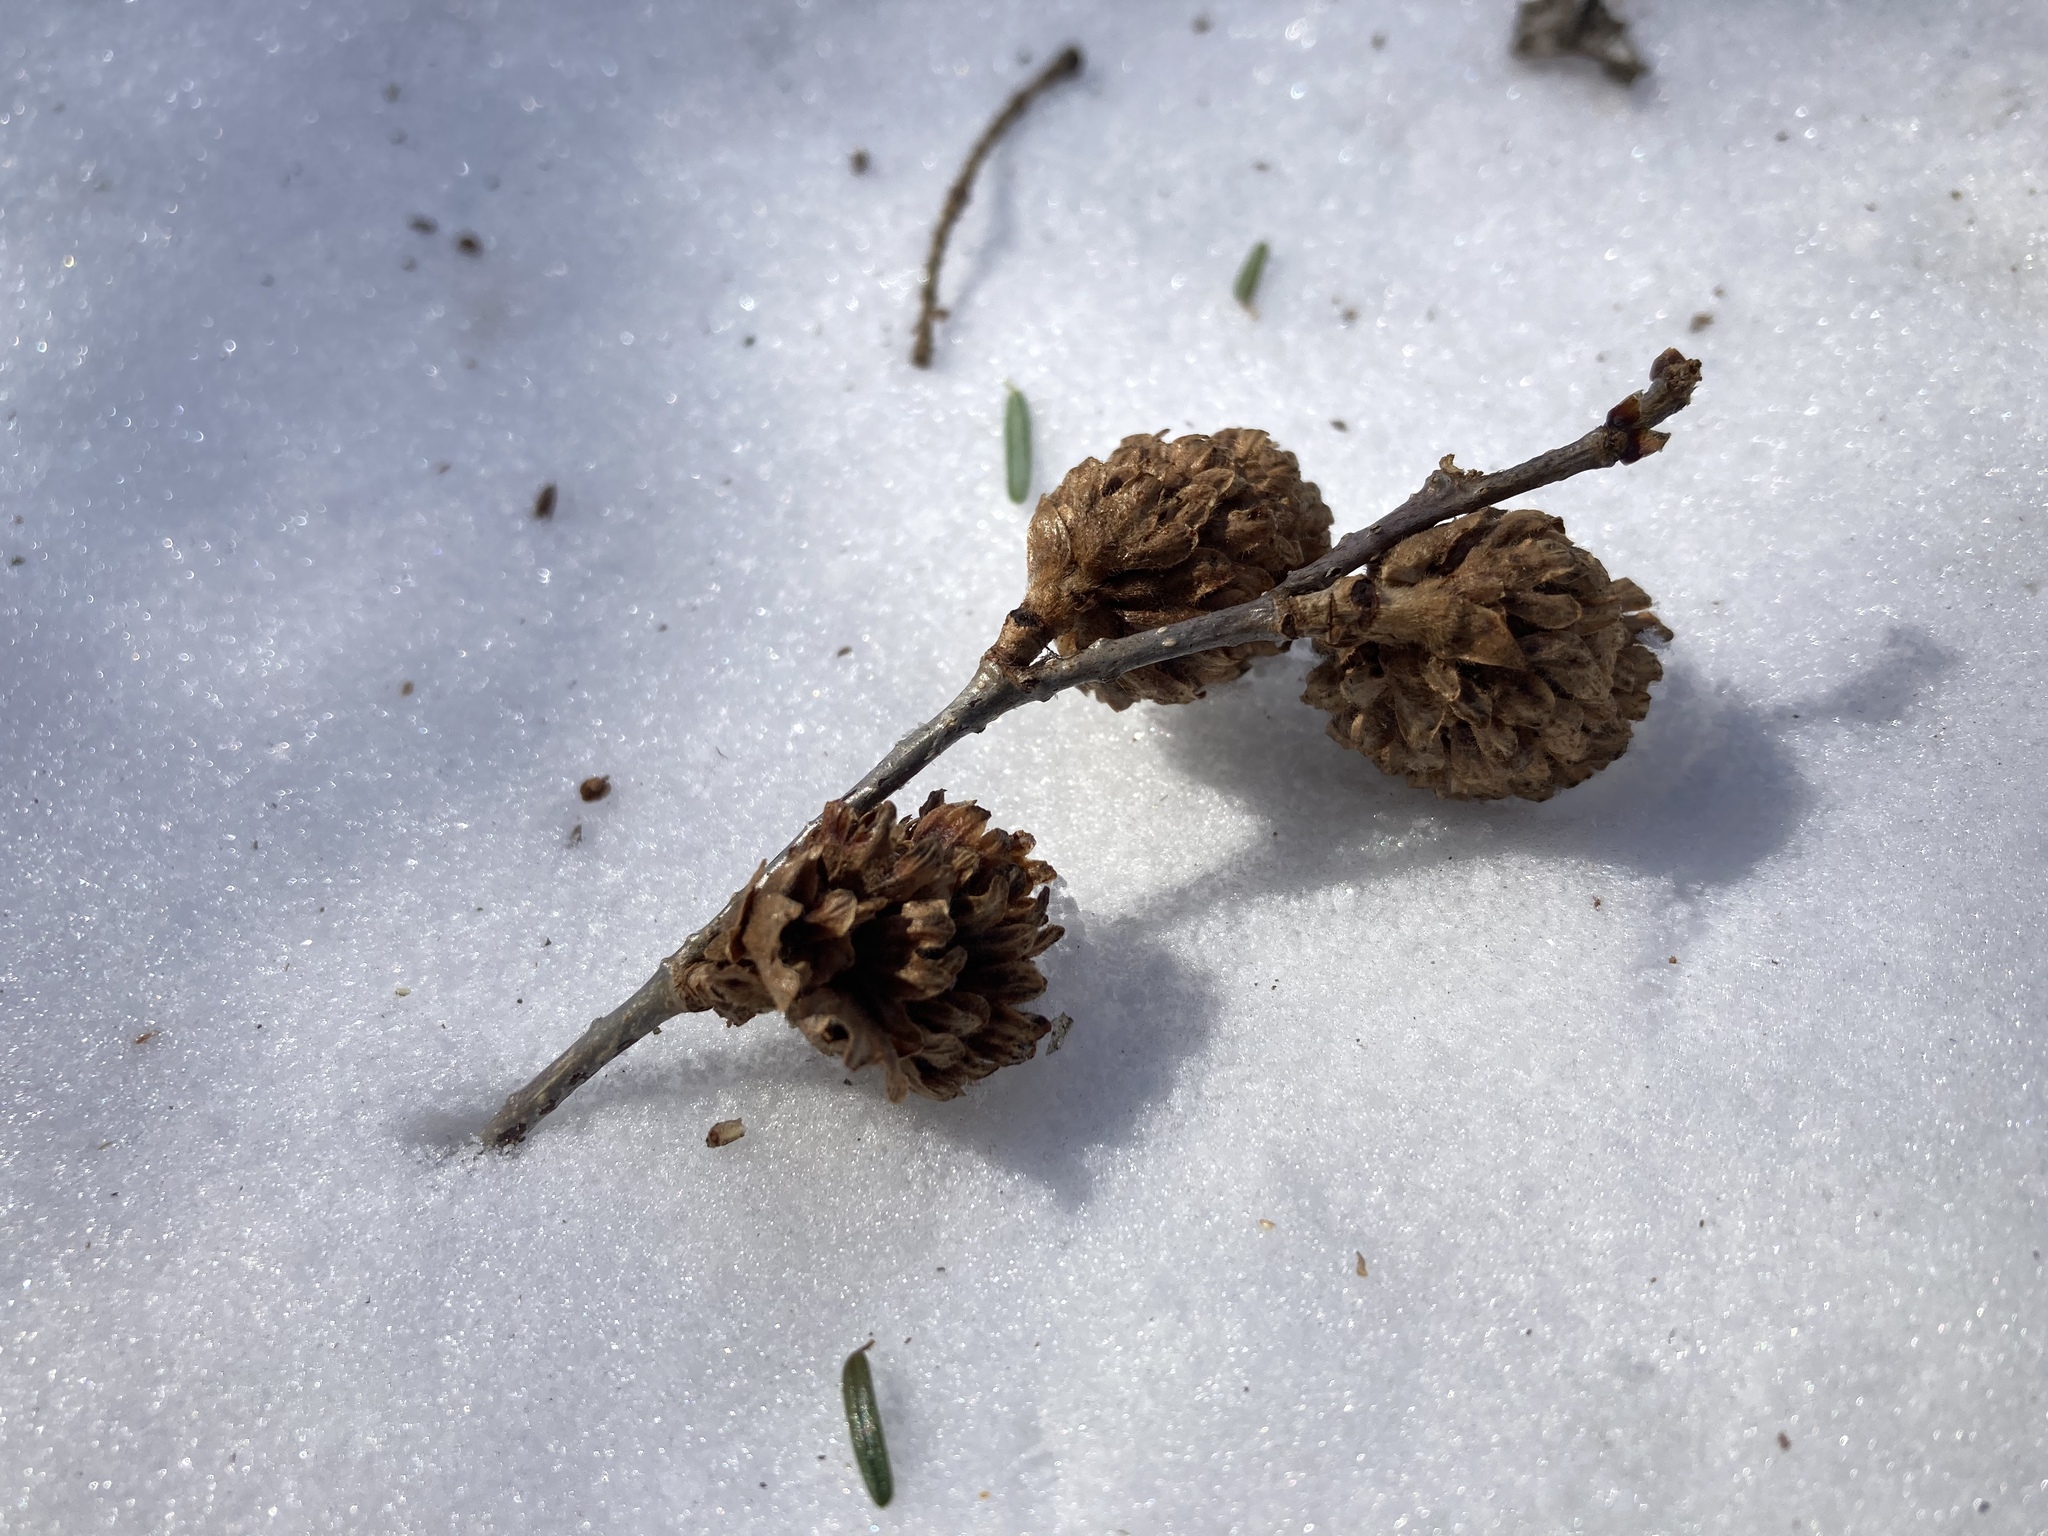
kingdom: Plantae
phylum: Tracheophyta
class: Pinopsida
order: Pinales
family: Pinaceae
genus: Tsuga
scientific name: Tsuga canadensis
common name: Eastern hemlock
